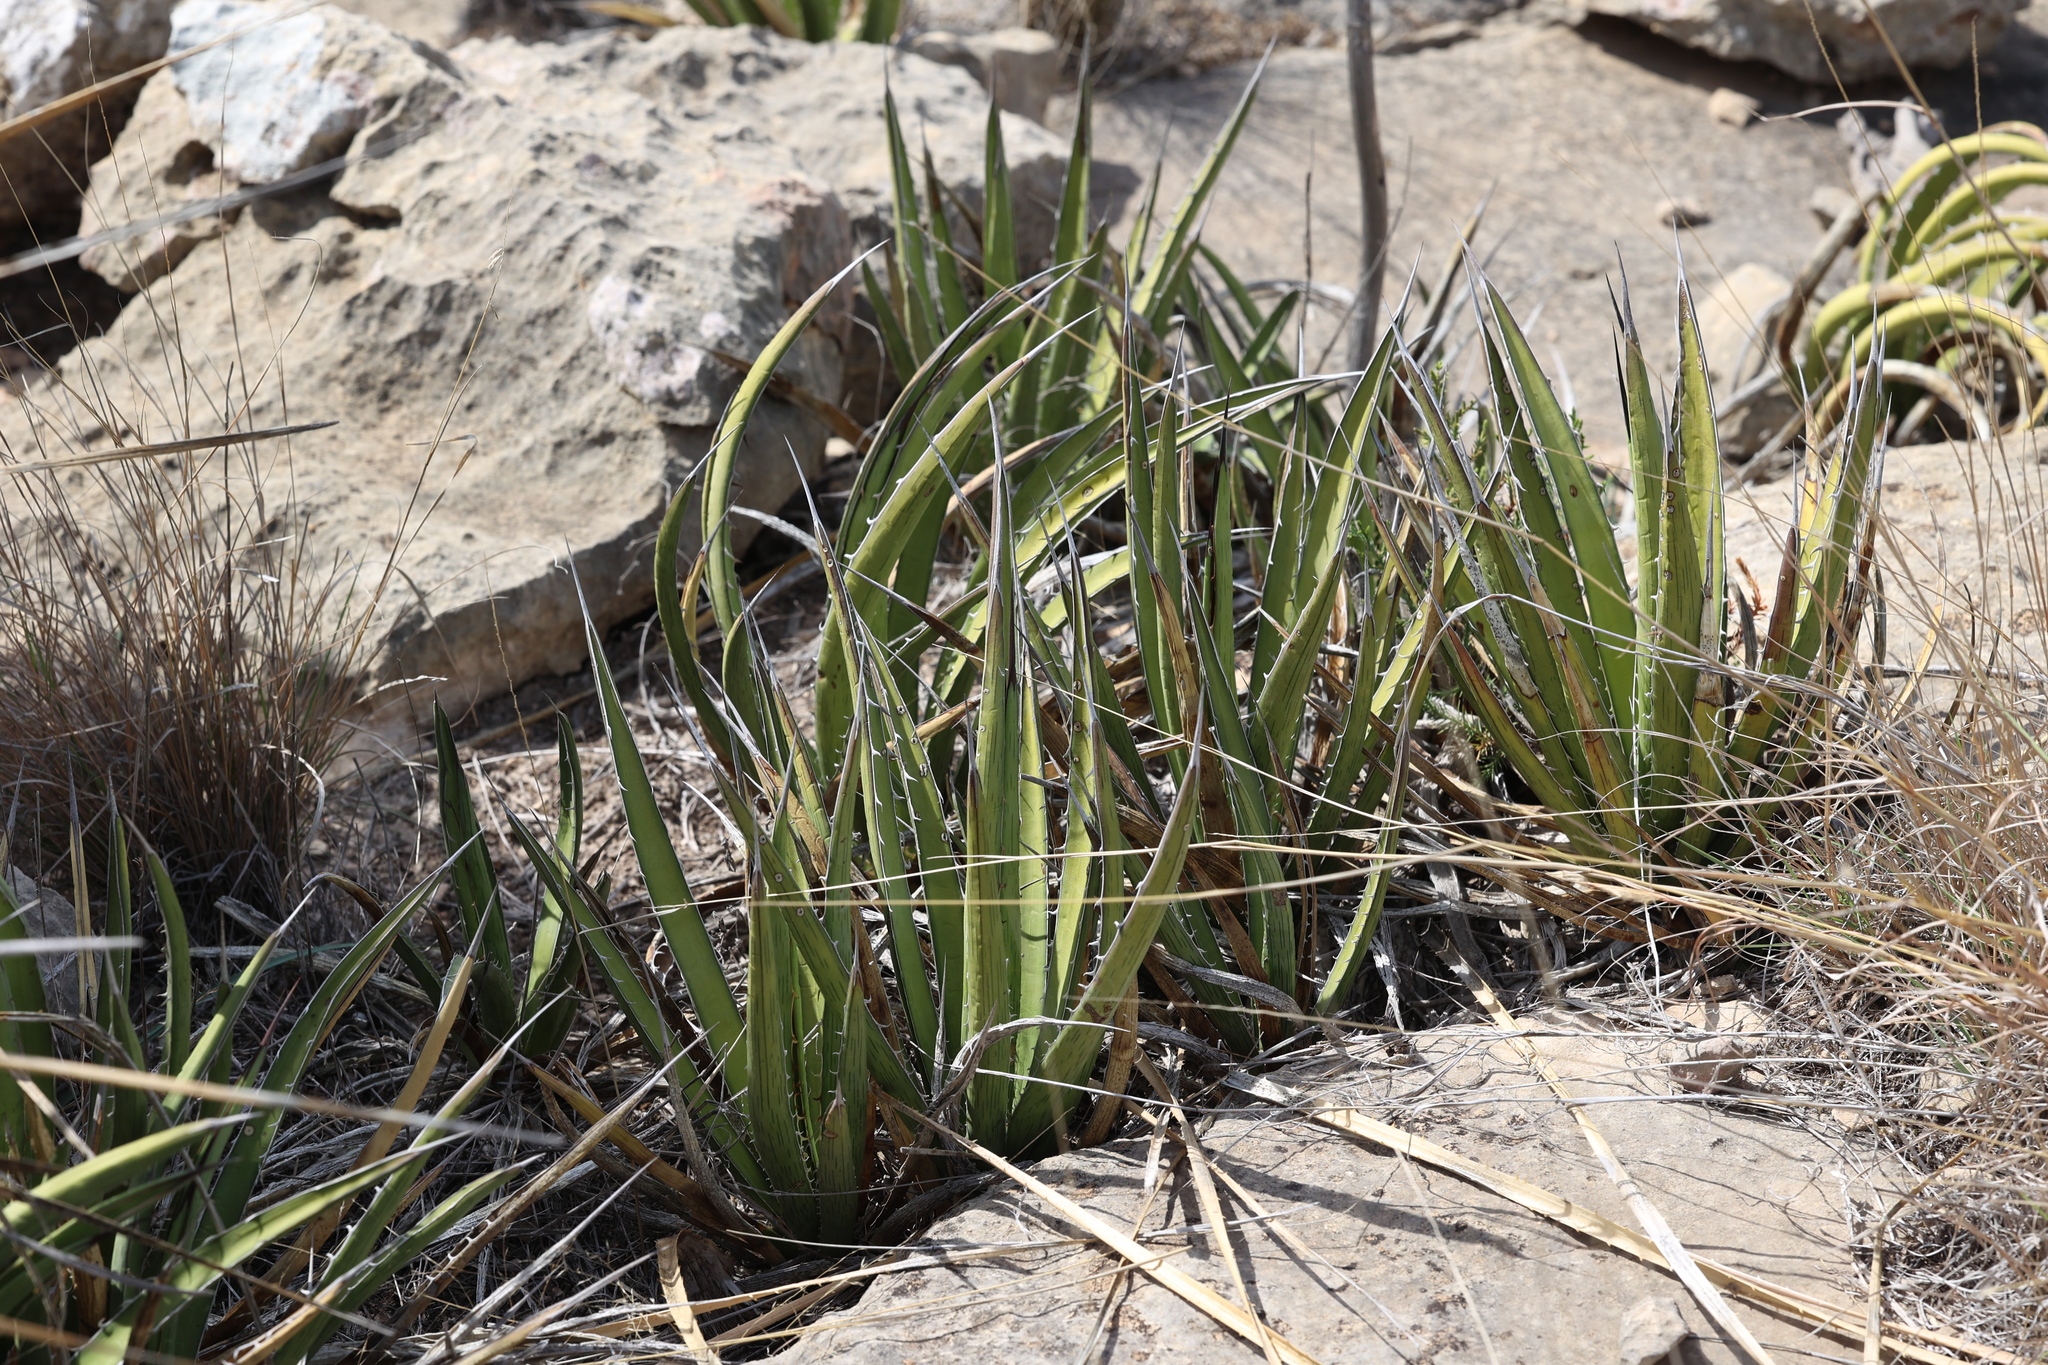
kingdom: Plantae
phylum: Tracheophyta
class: Liliopsida
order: Asparagales
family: Asparagaceae
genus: Agave
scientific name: Agave lechuguilla
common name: Lecheguilla agave
